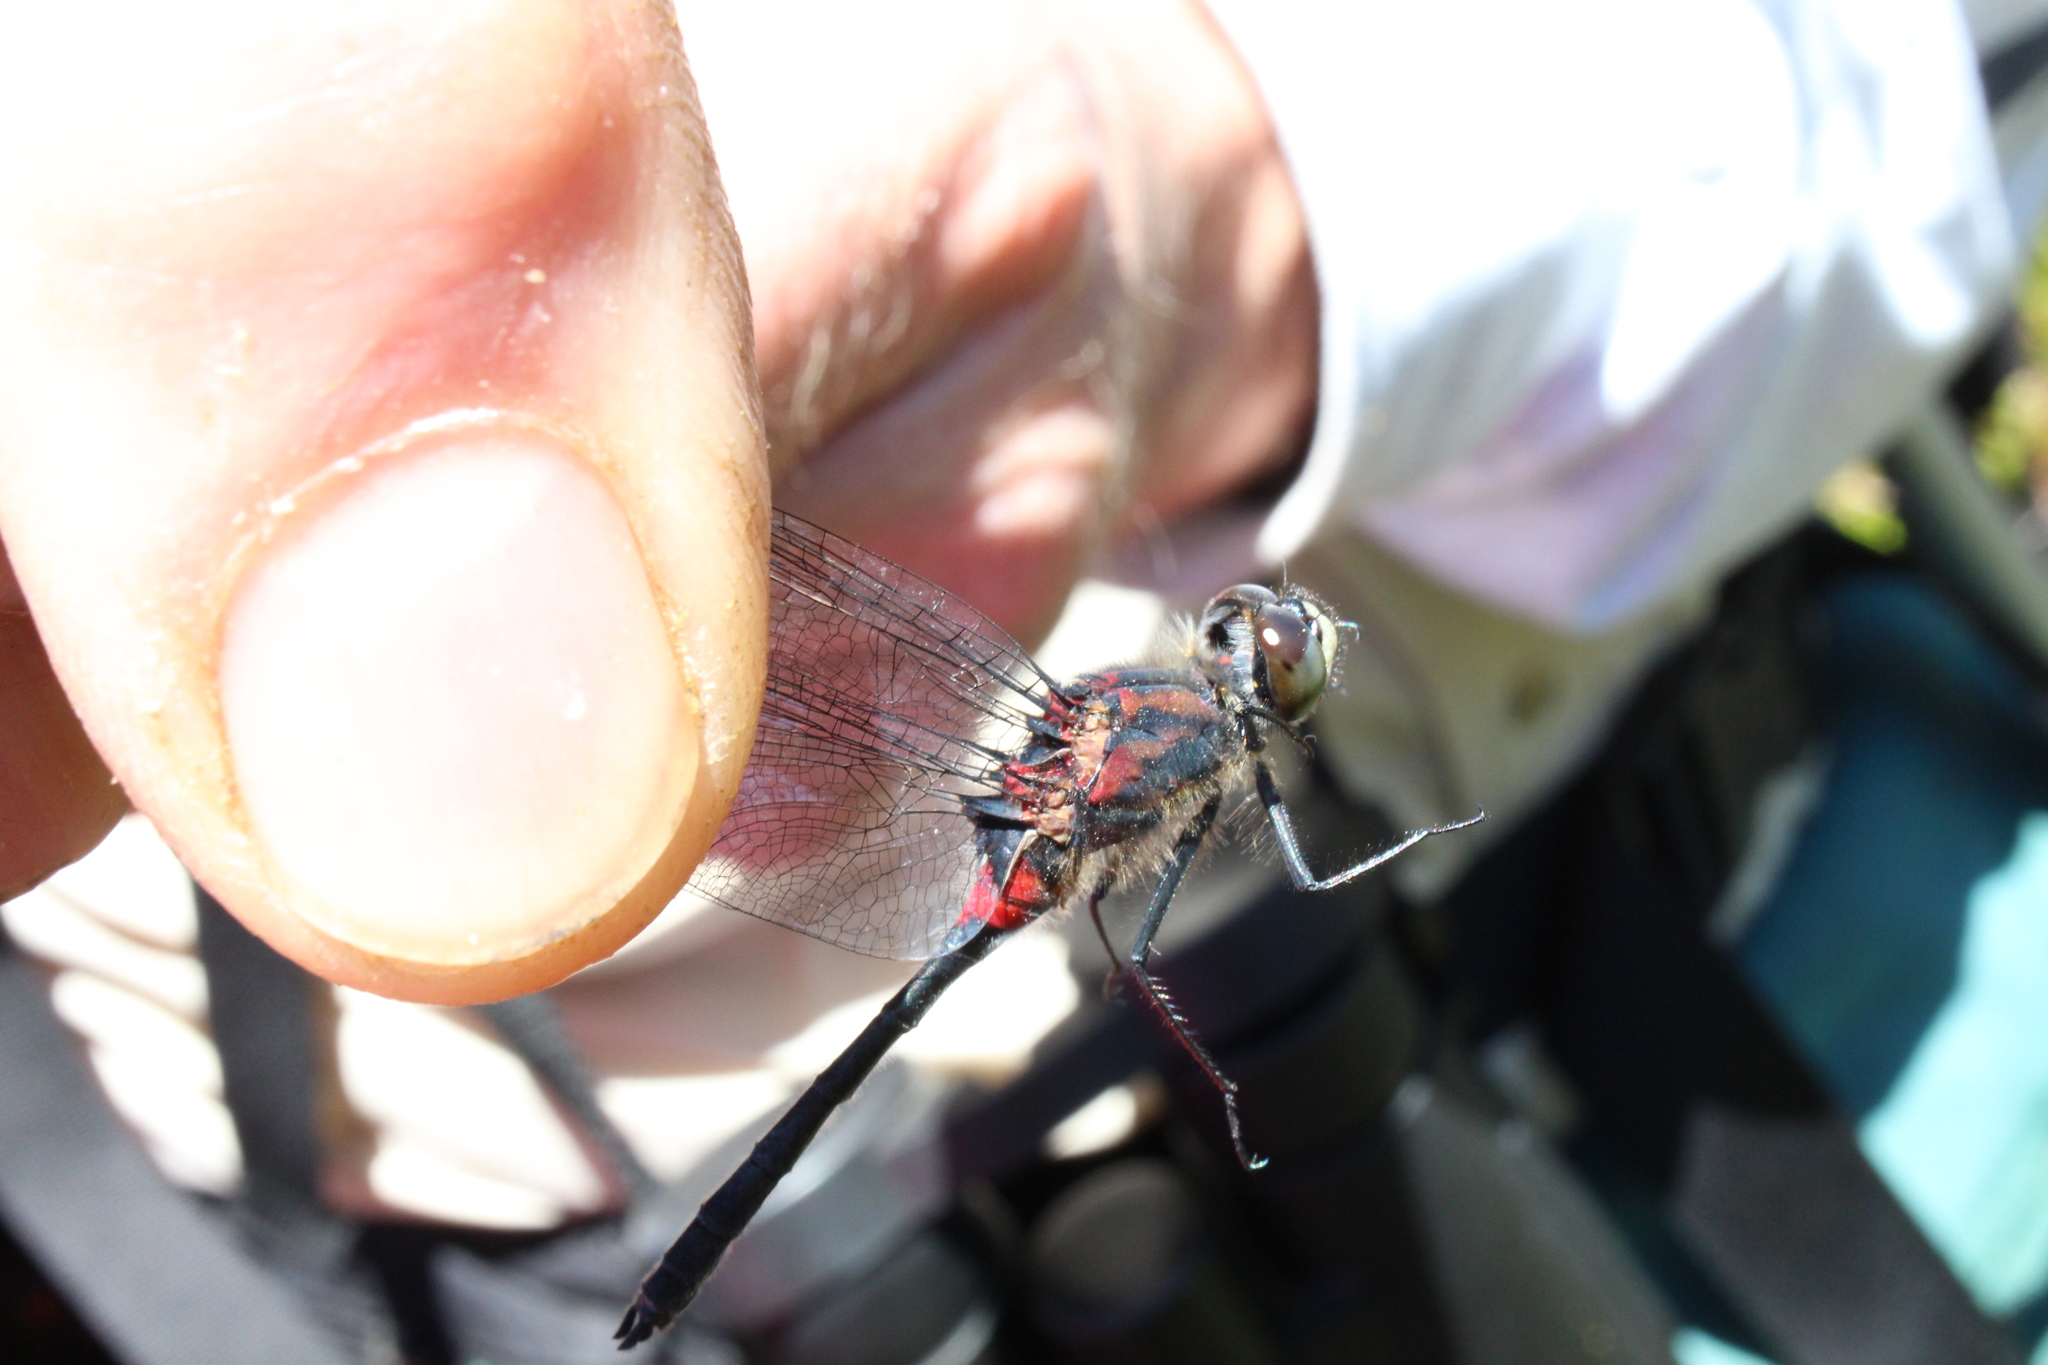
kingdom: Animalia
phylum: Arthropoda
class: Insecta
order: Odonata
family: Libellulidae
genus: Leucorrhinia
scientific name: Leucorrhinia glacialis
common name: Crimson-ringed whiteface
